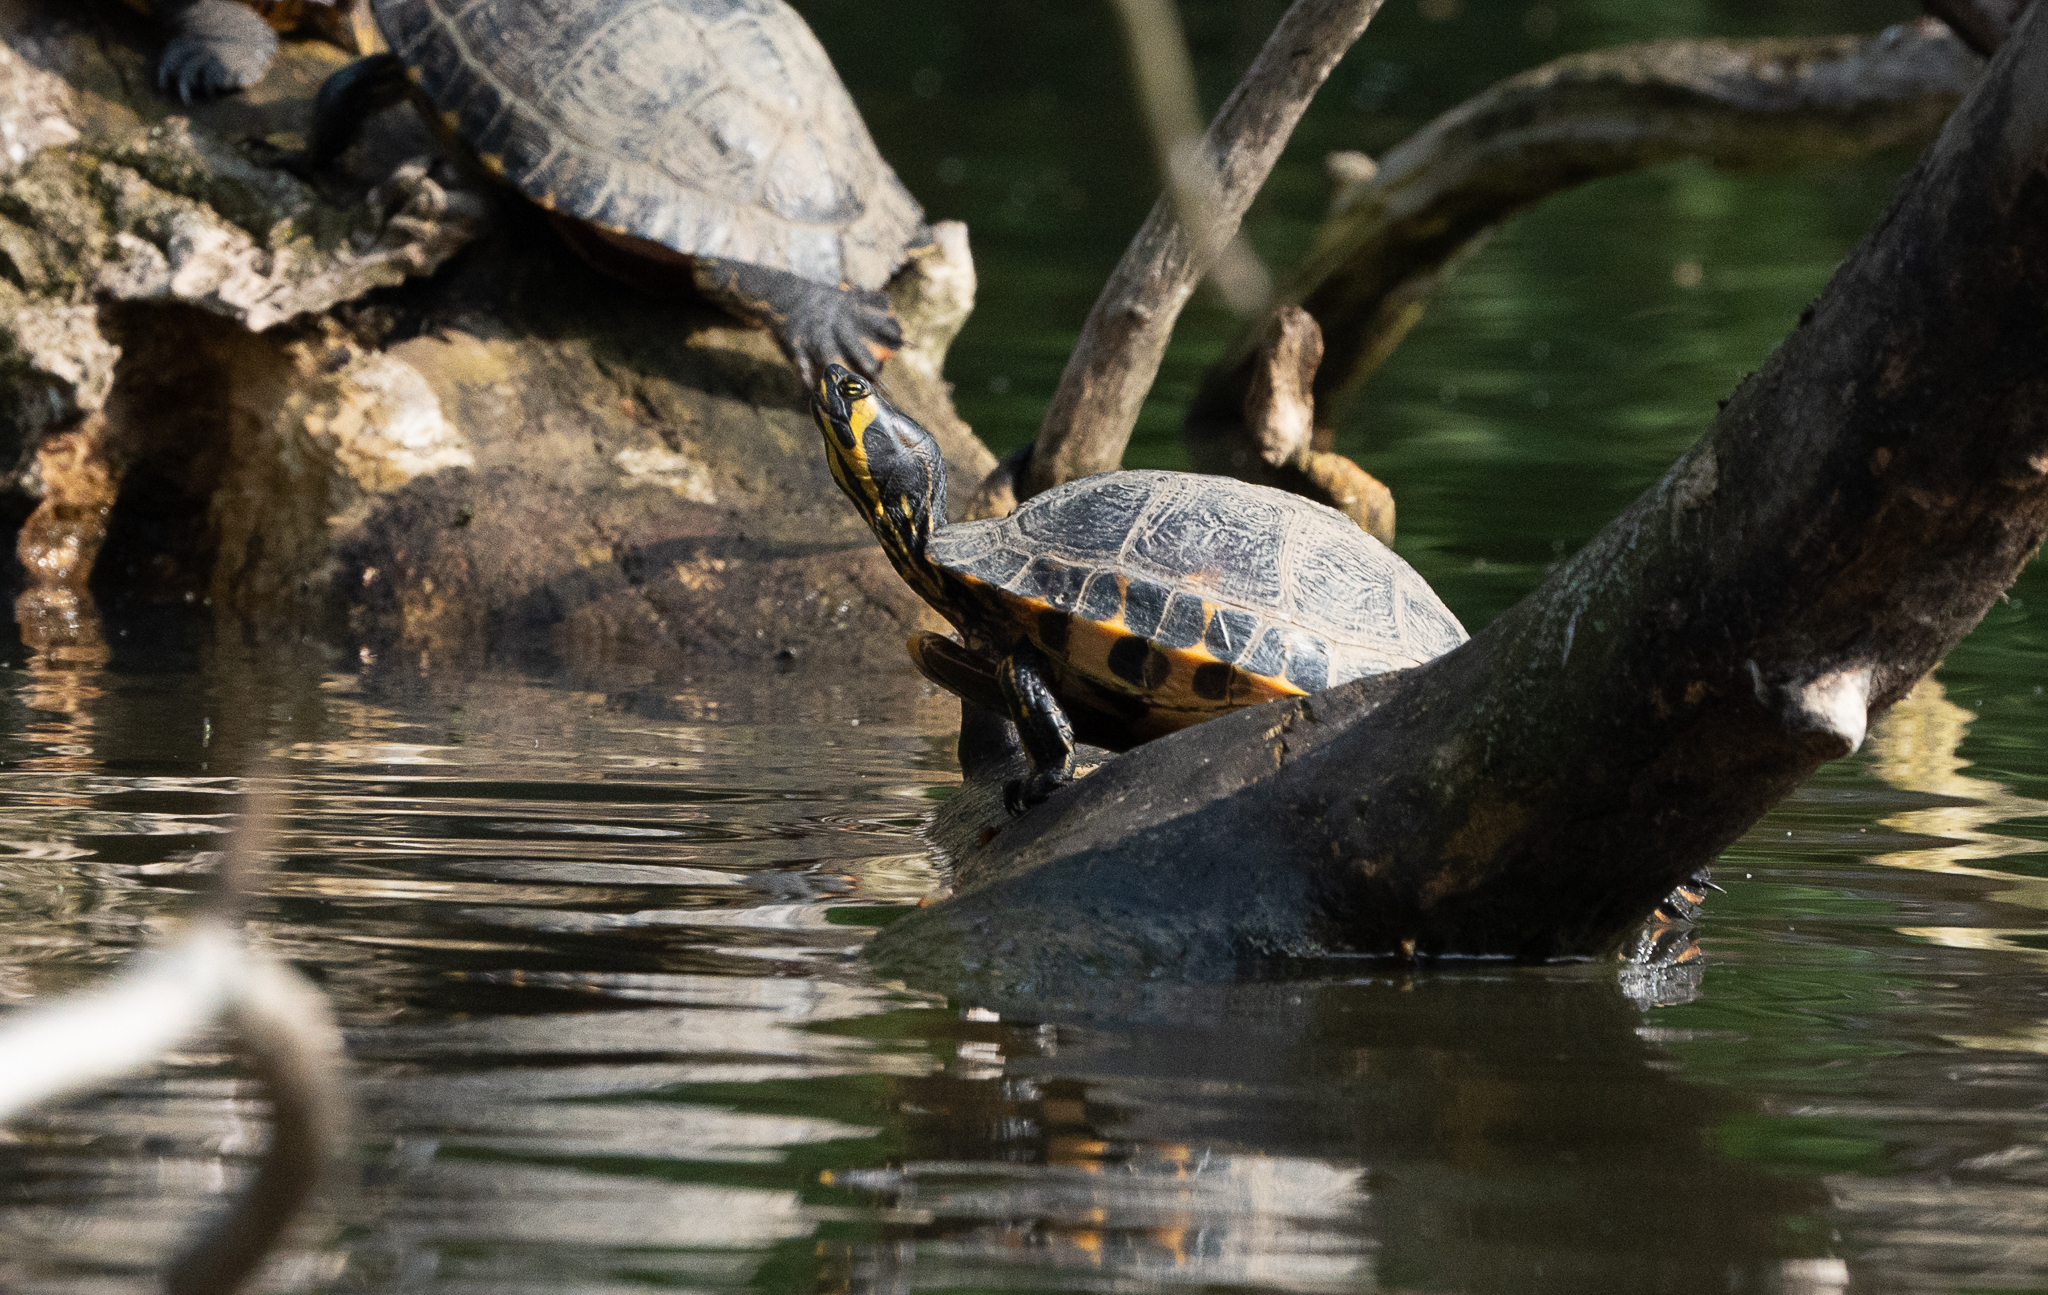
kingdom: Animalia
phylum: Chordata
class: Testudines
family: Emydidae
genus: Trachemys
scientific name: Trachemys scripta
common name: Slider
